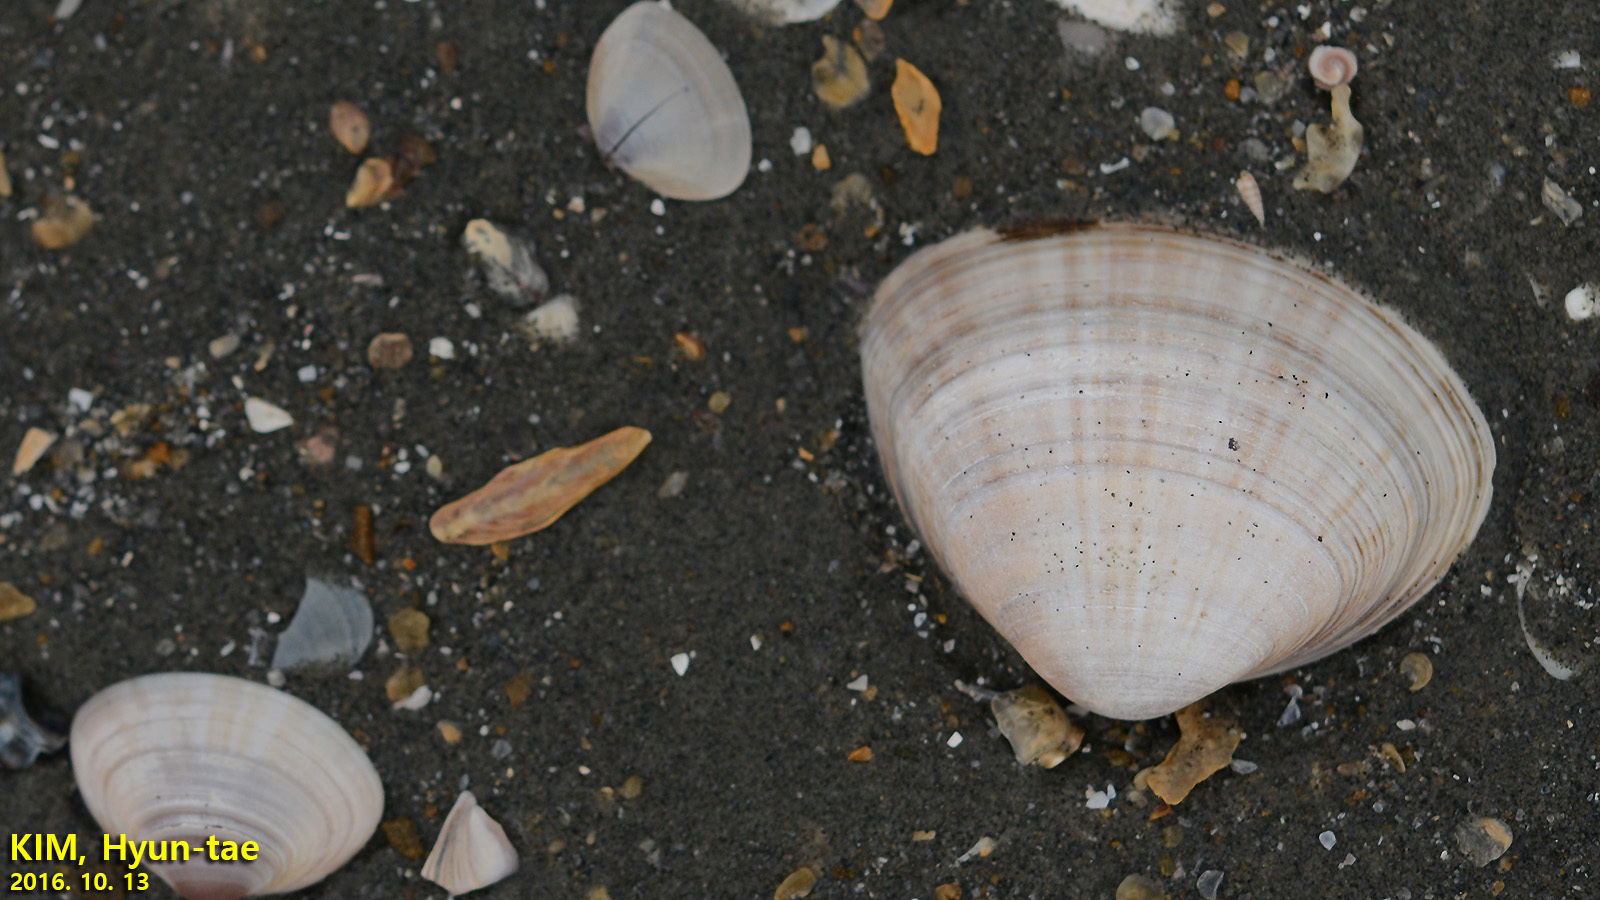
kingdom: Animalia
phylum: Mollusca
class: Bivalvia
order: Venerida
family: Mactridae
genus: Mactra
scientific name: Mactra chinensis
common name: Chinese surf clam
